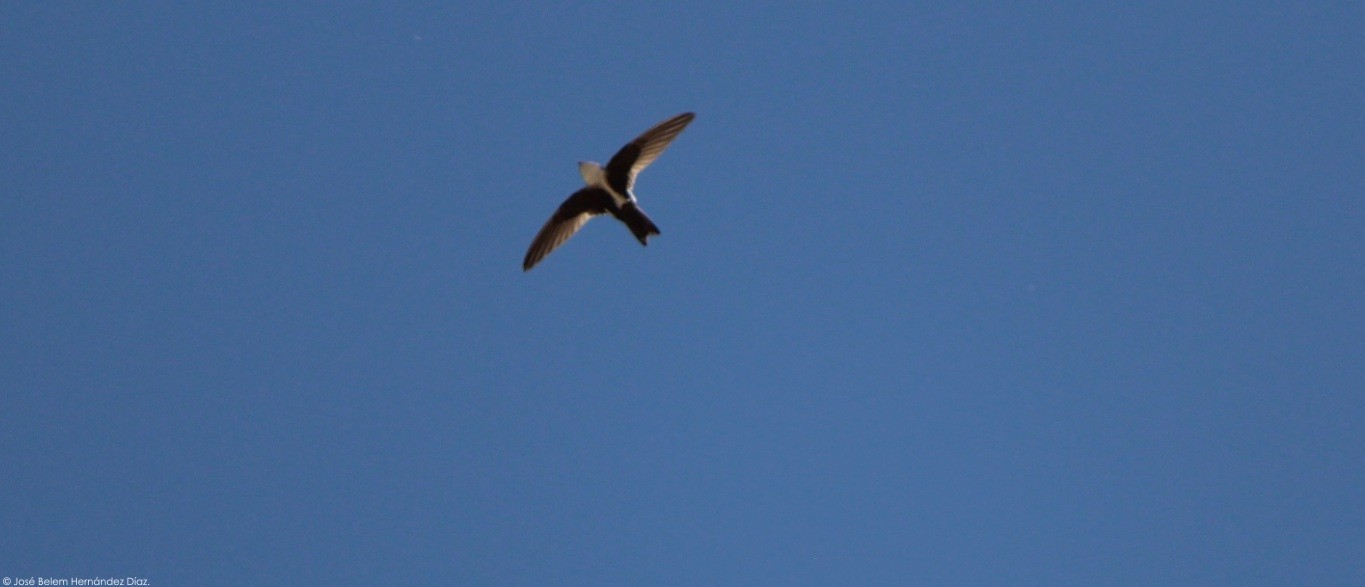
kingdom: Animalia
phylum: Chordata
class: Aves
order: Apodiformes
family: Apodidae
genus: Aeronautes
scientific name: Aeronautes saxatalis
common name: White-throated swift
